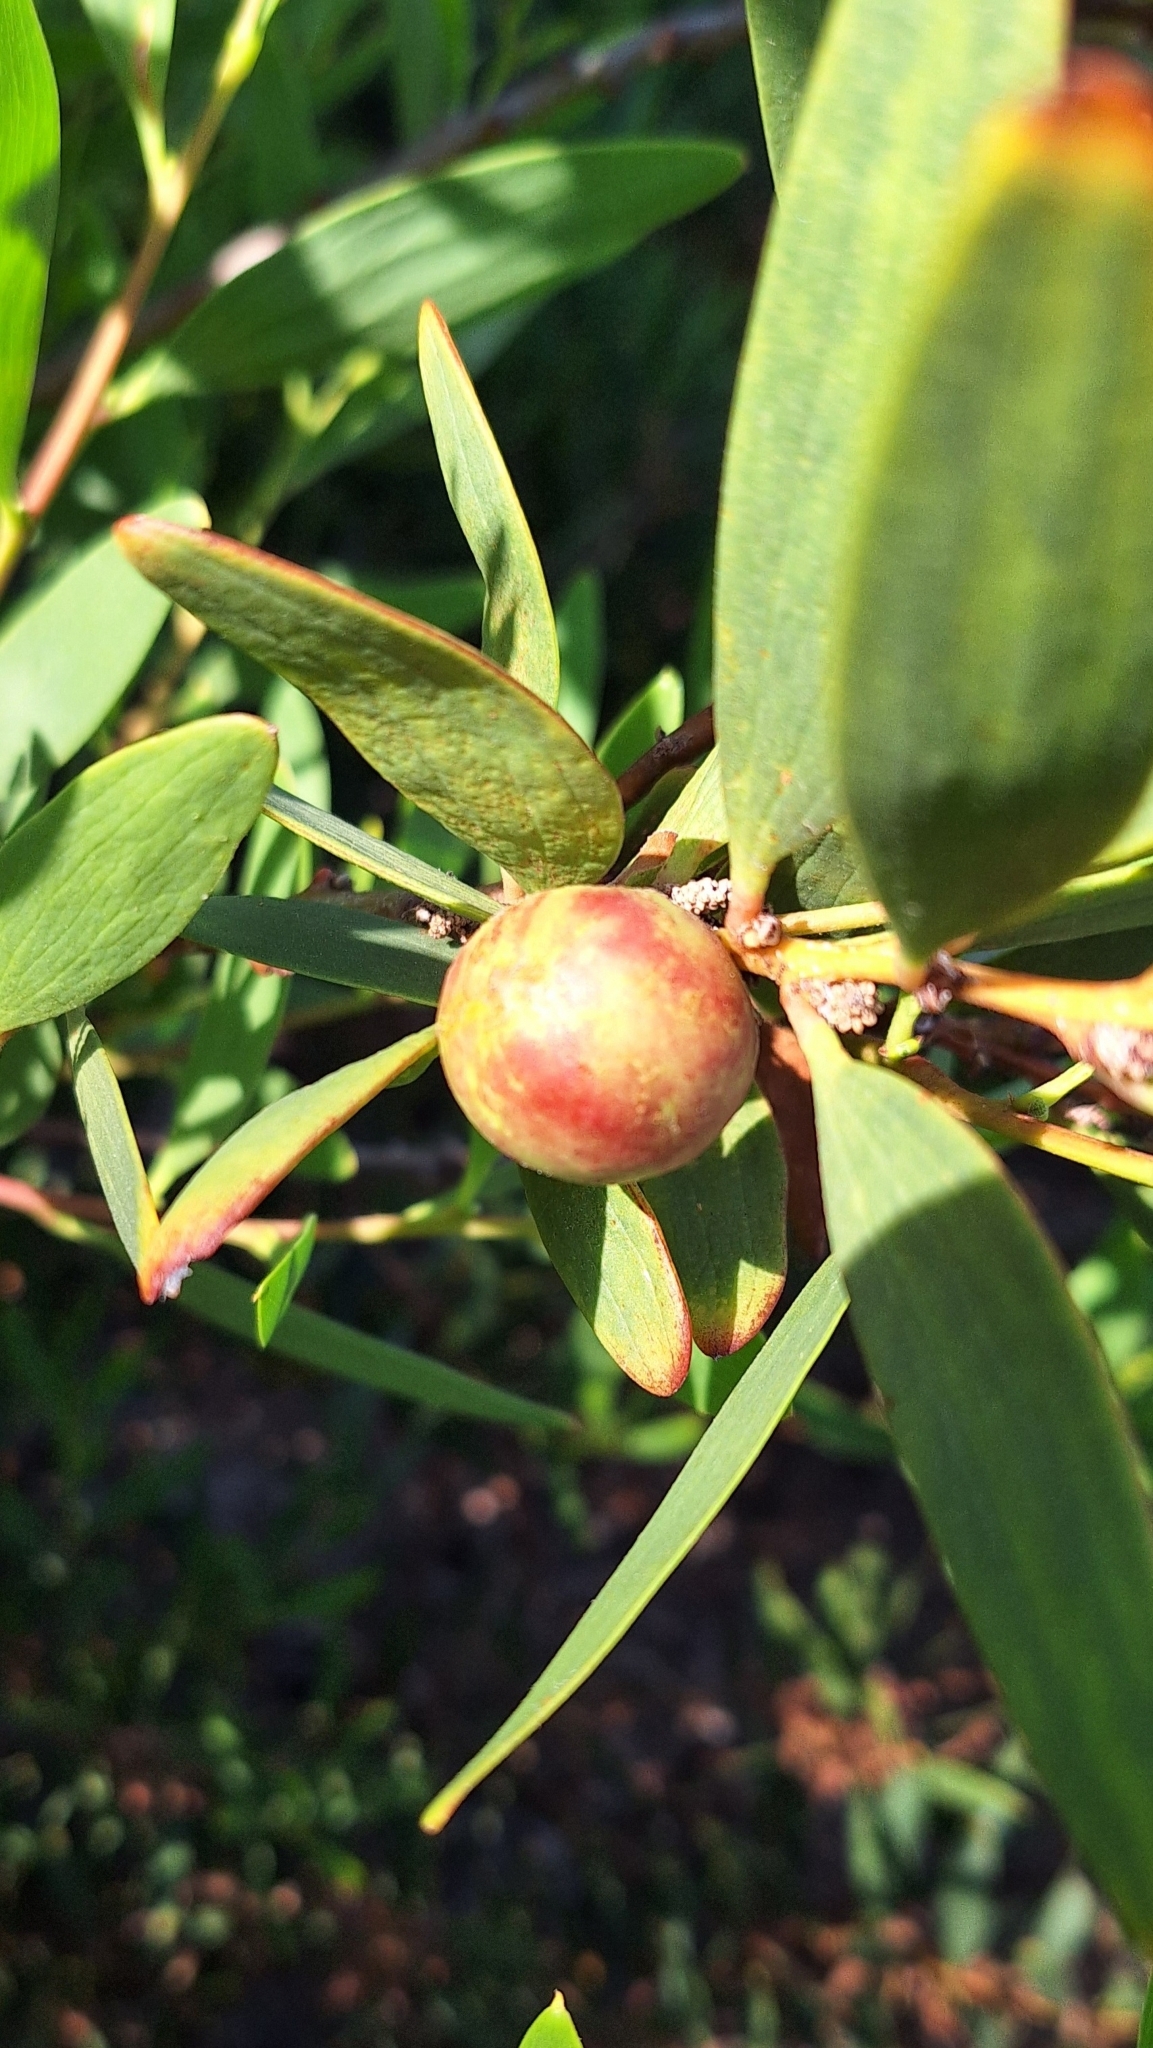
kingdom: Animalia
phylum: Arthropoda
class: Insecta
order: Hymenoptera
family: Pteromalidae
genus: Trichilogaster
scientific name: Trichilogaster acaciaelongifoliae
